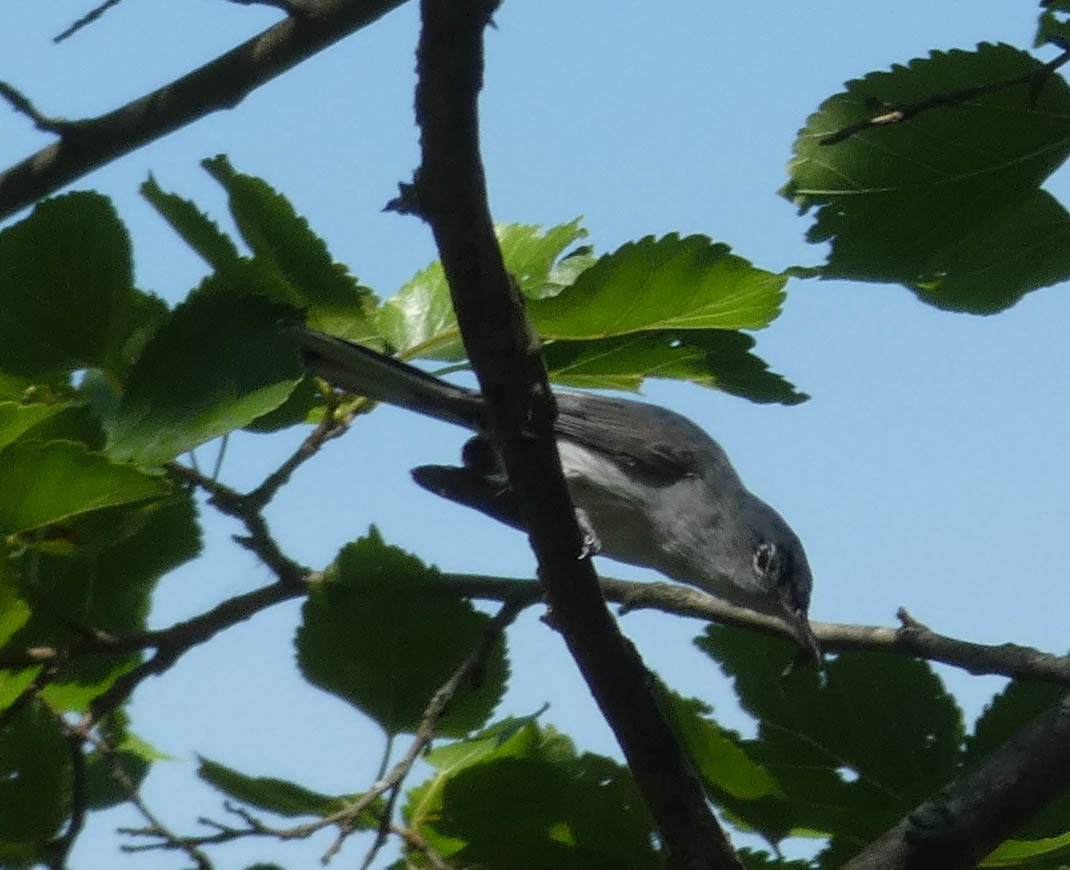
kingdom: Animalia
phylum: Chordata
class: Aves
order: Passeriformes
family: Polioptilidae
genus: Polioptila
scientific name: Polioptila caerulea
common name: Blue-gray gnatcatcher
